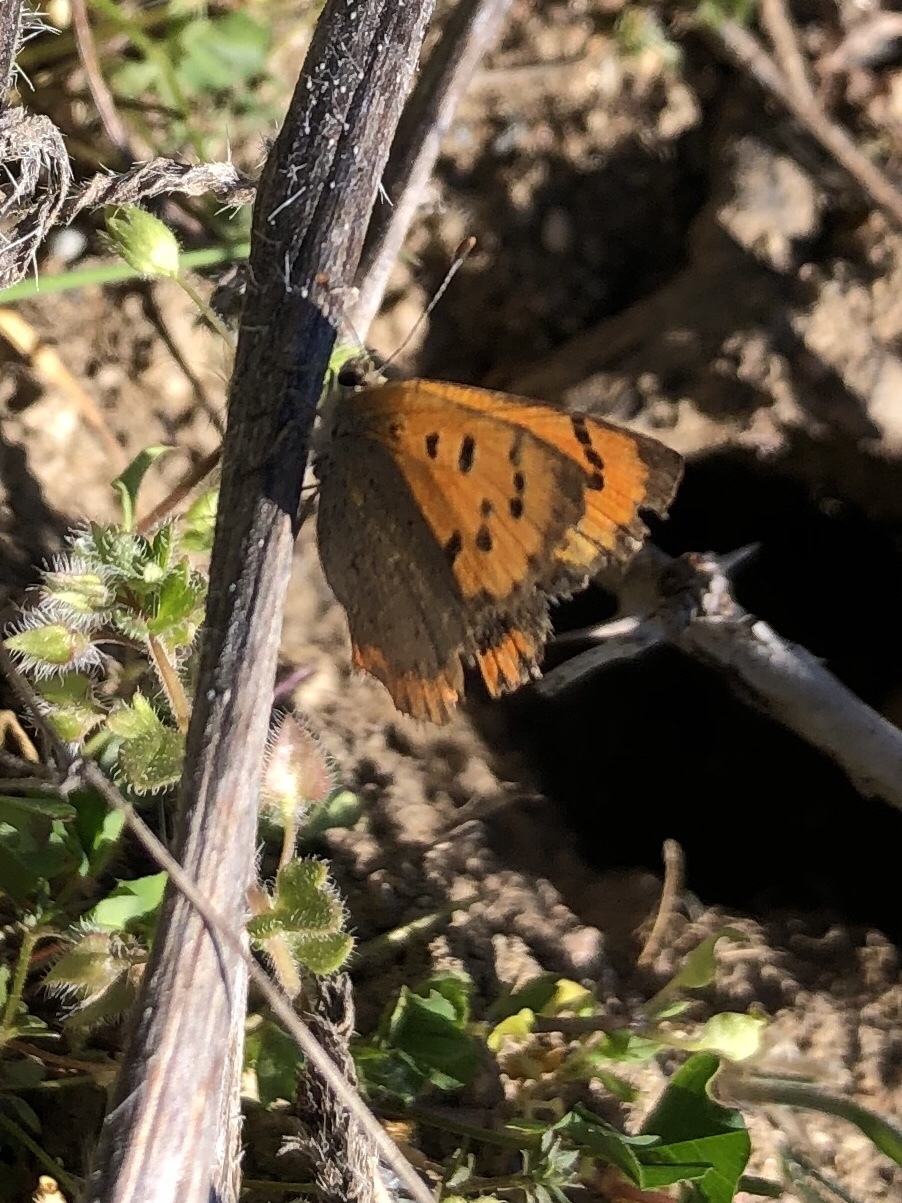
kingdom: Animalia
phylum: Arthropoda
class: Insecta
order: Lepidoptera
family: Lycaenidae
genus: Lycaena
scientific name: Lycaena phlaeas
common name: Small copper
